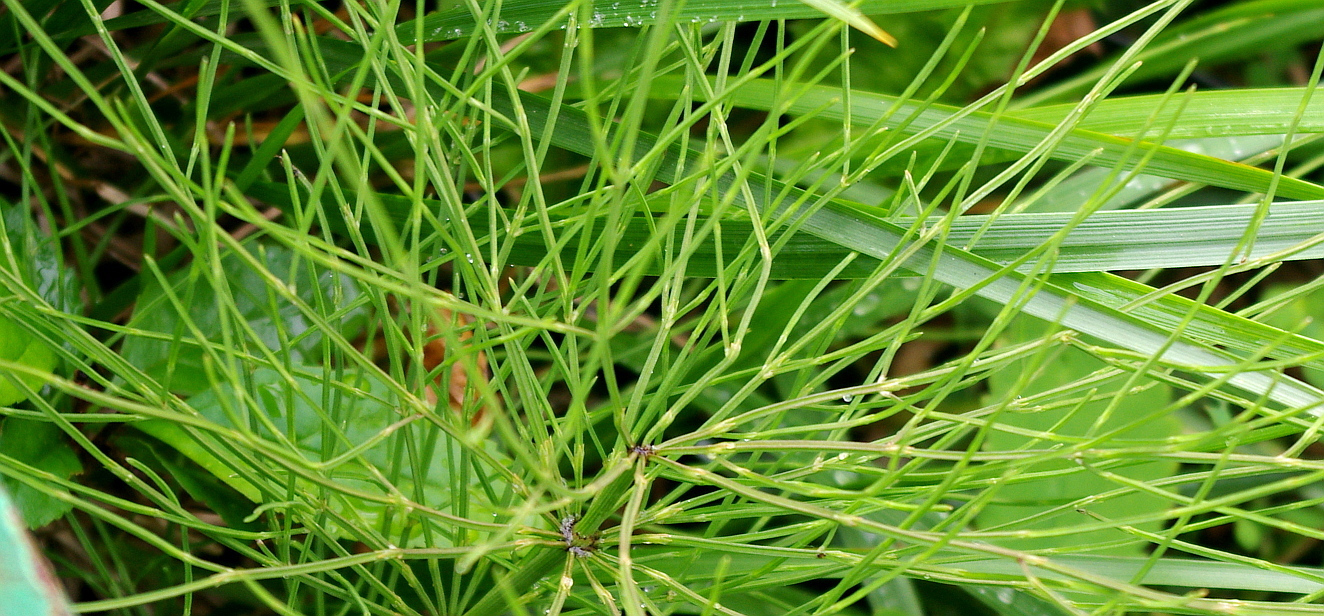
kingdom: Plantae
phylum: Tracheophyta
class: Polypodiopsida
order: Equisetales
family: Equisetaceae
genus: Equisetum
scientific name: Equisetum arvense
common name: Field horsetail
